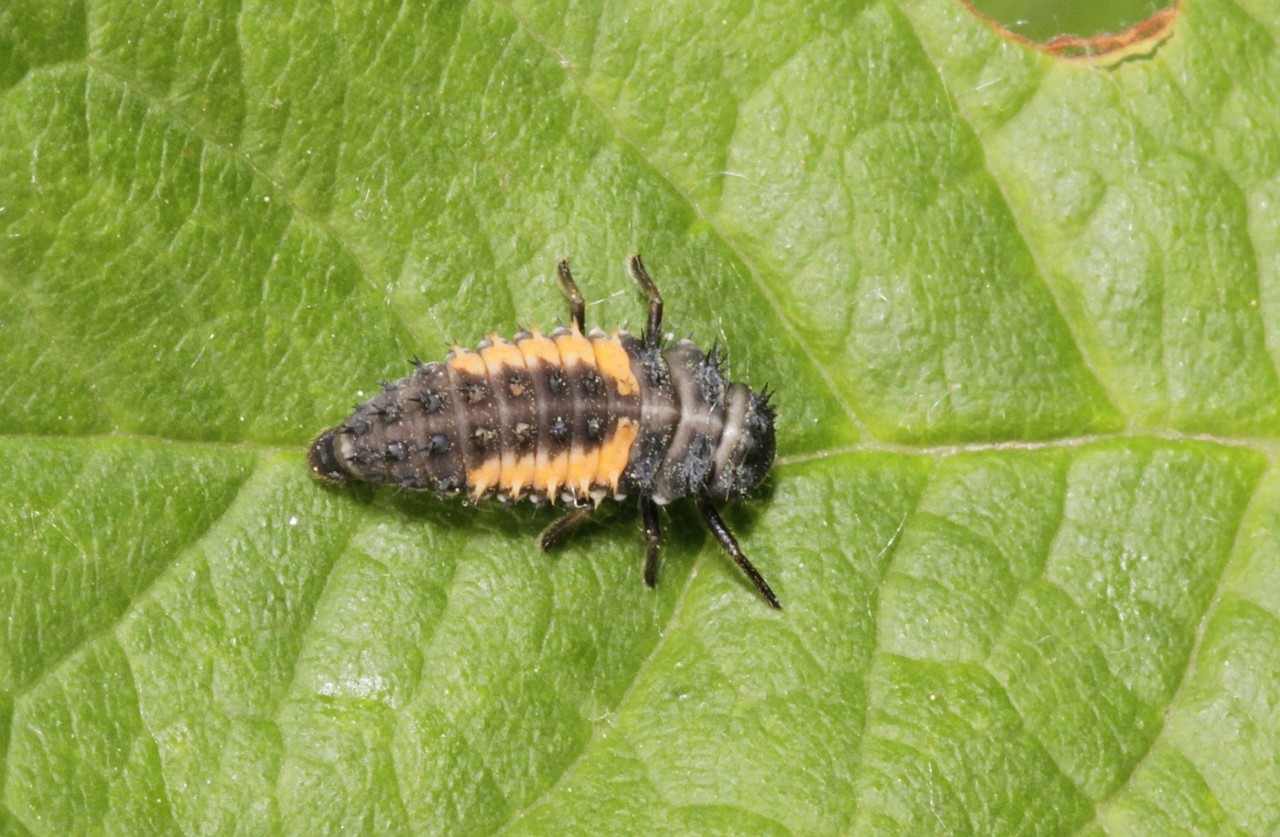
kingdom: Animalia
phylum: Arthropoda
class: Insecta
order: Coleoptera
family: Coccinellidae
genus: Harmonia
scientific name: Harmonia axyridis
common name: Harlequin ladybird
